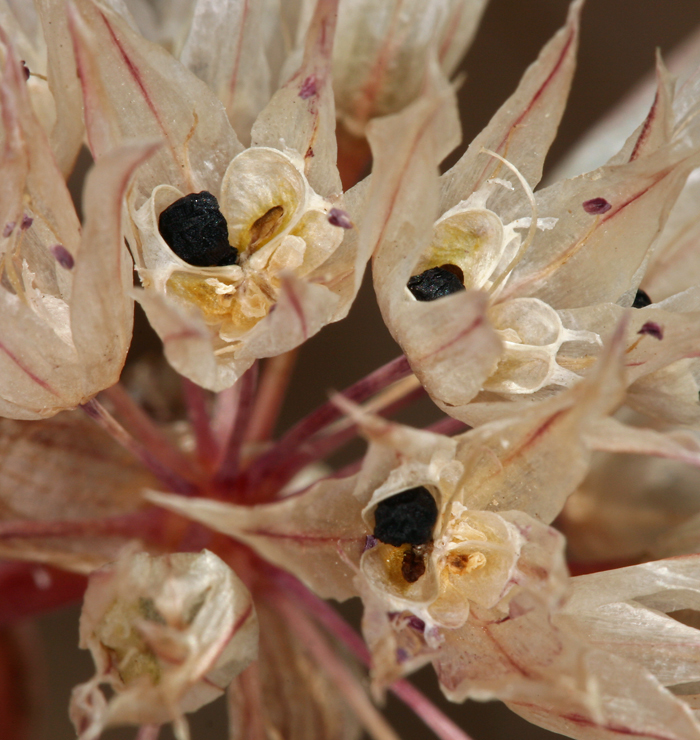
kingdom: Plantae
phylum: Tracheophyta
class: Liliopsida
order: Asparagales
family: Amaryllidaceae
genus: Allium
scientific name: Allium atrorubens
